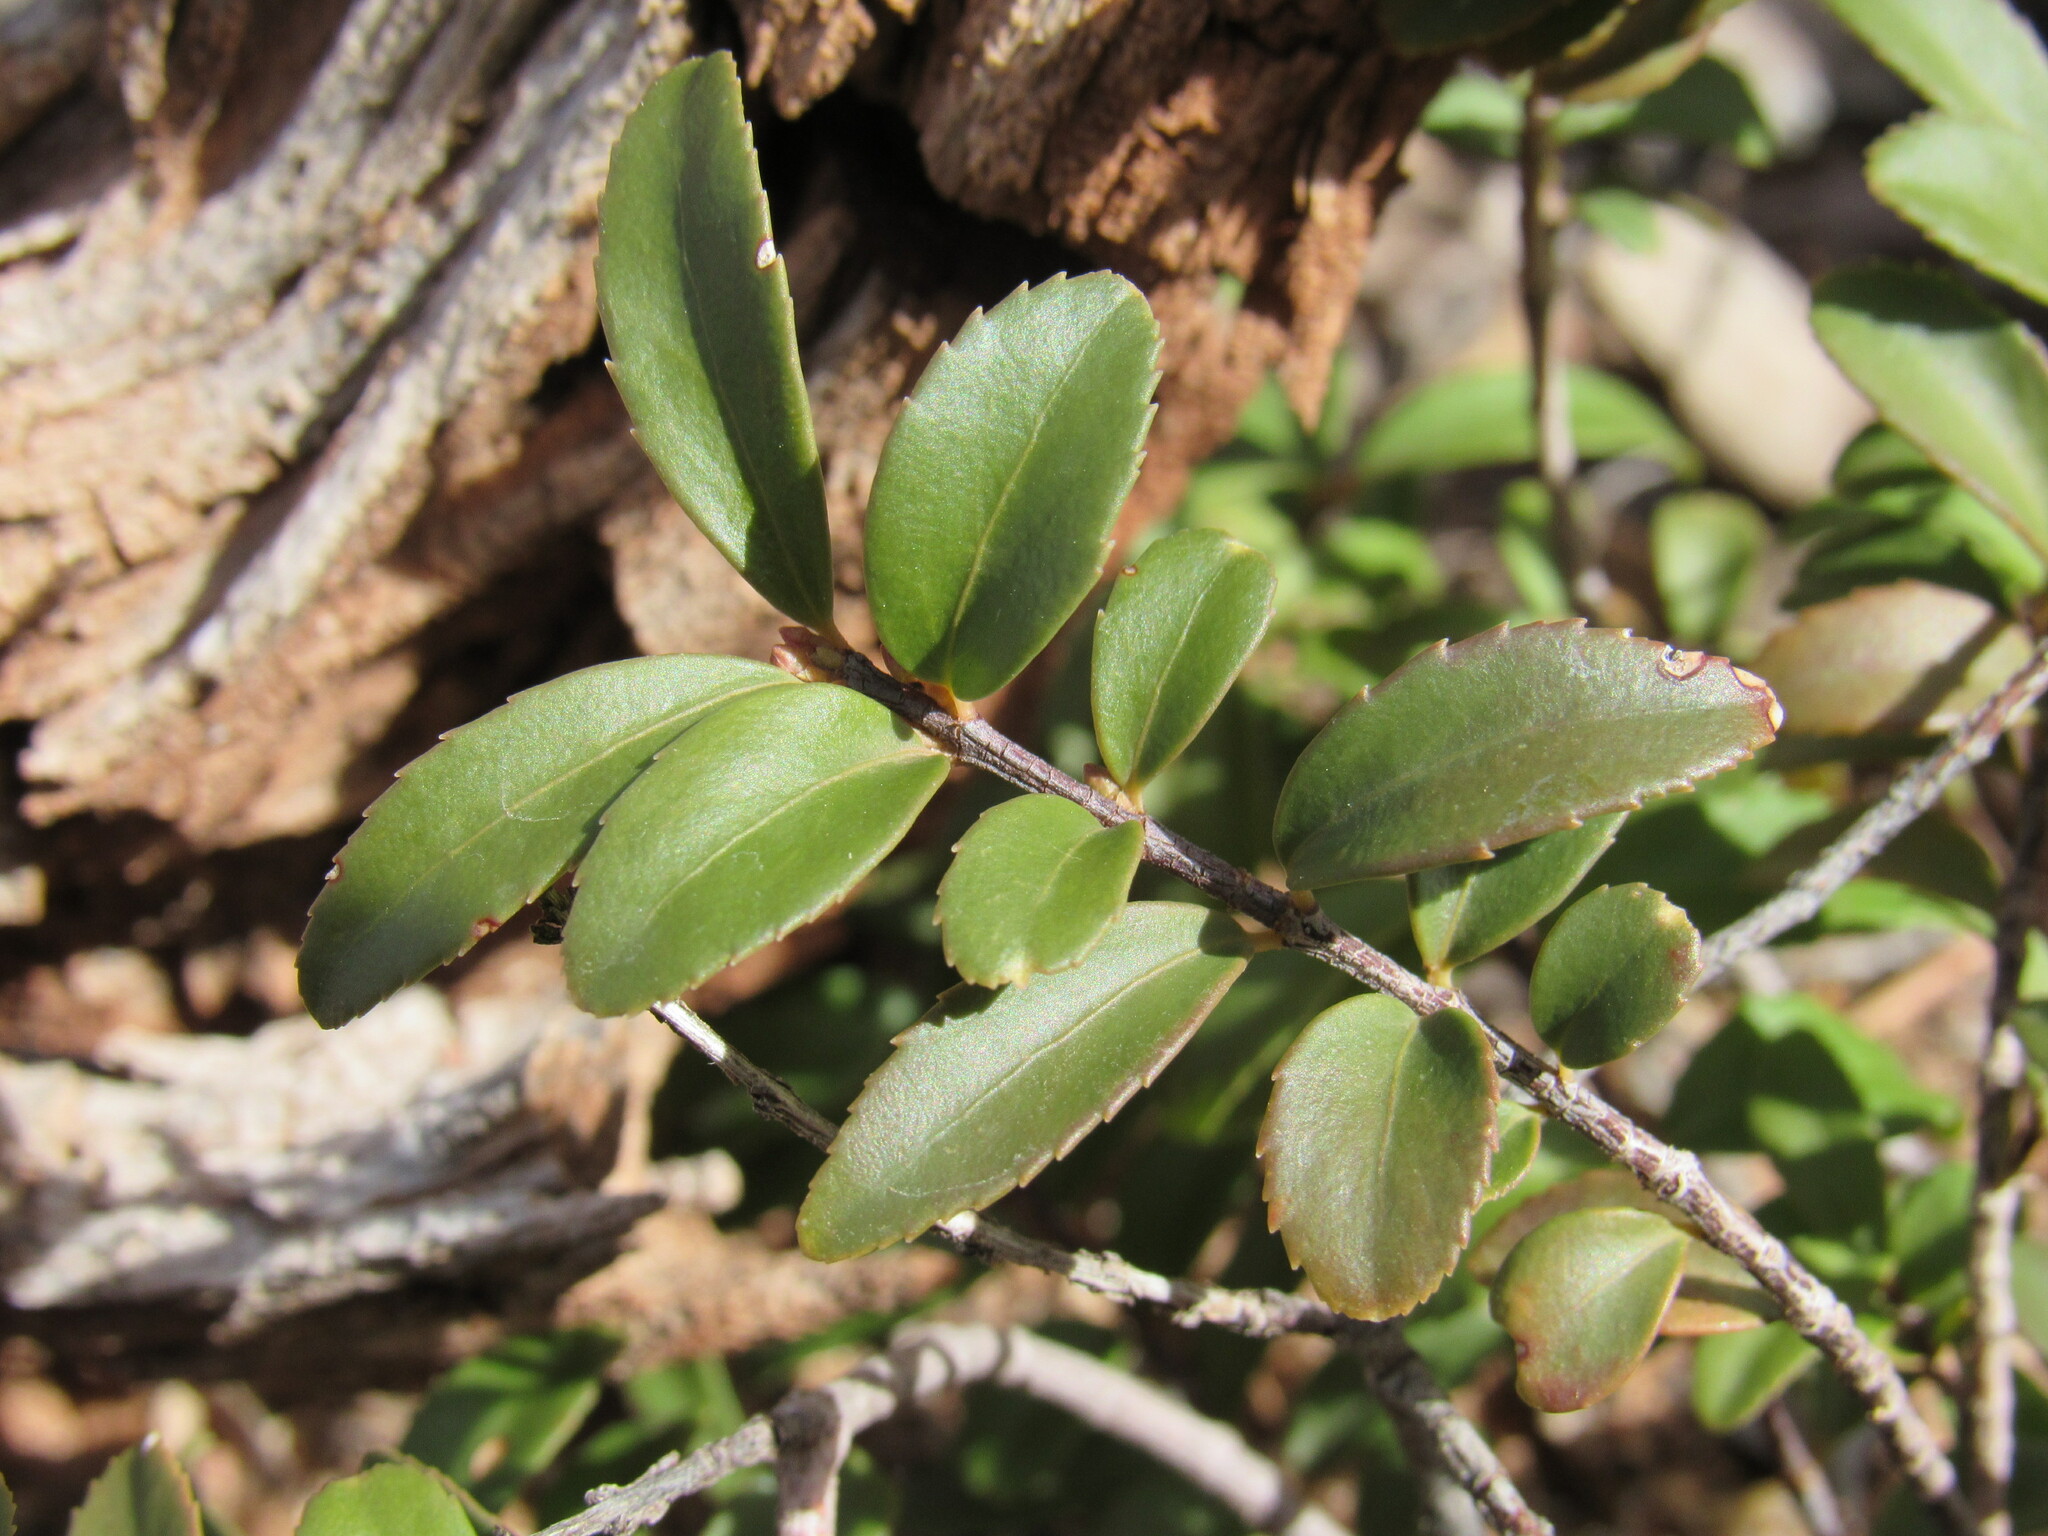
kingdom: Plantae
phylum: Tracheophyta
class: Magnoliopsida
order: Celastrales
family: Celastraceae
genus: Paxistima
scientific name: Paxistima myrsinites
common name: Mountain-lover
